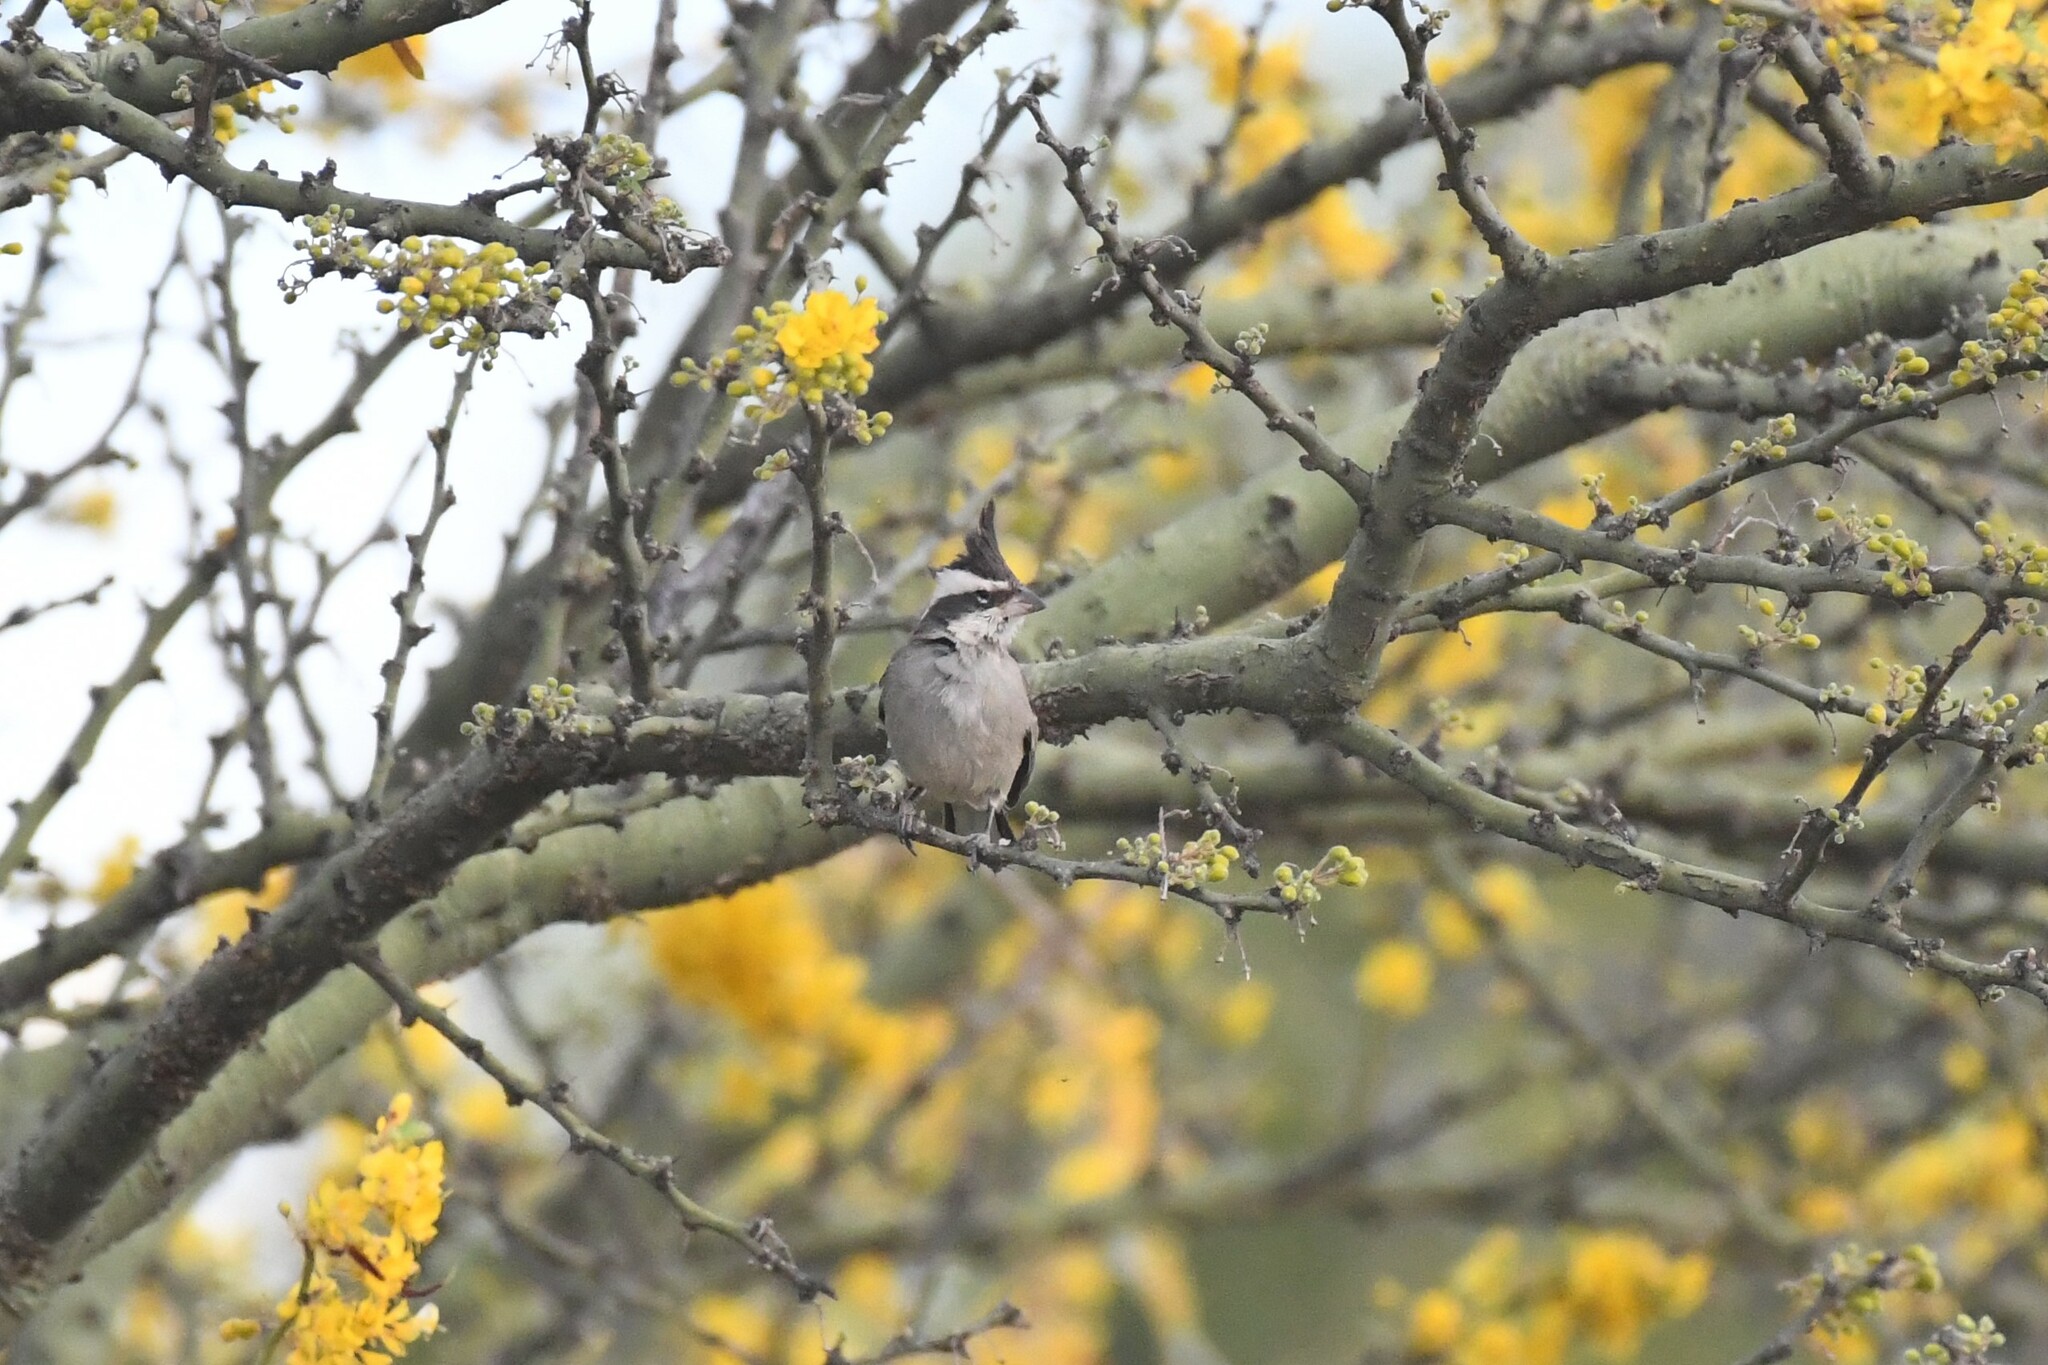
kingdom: Animalia
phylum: Chordata
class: Aves
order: Passeriformes
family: Thraupidae
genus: Lophospingus
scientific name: Lophospingus pusillus
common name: Black-crested finch
